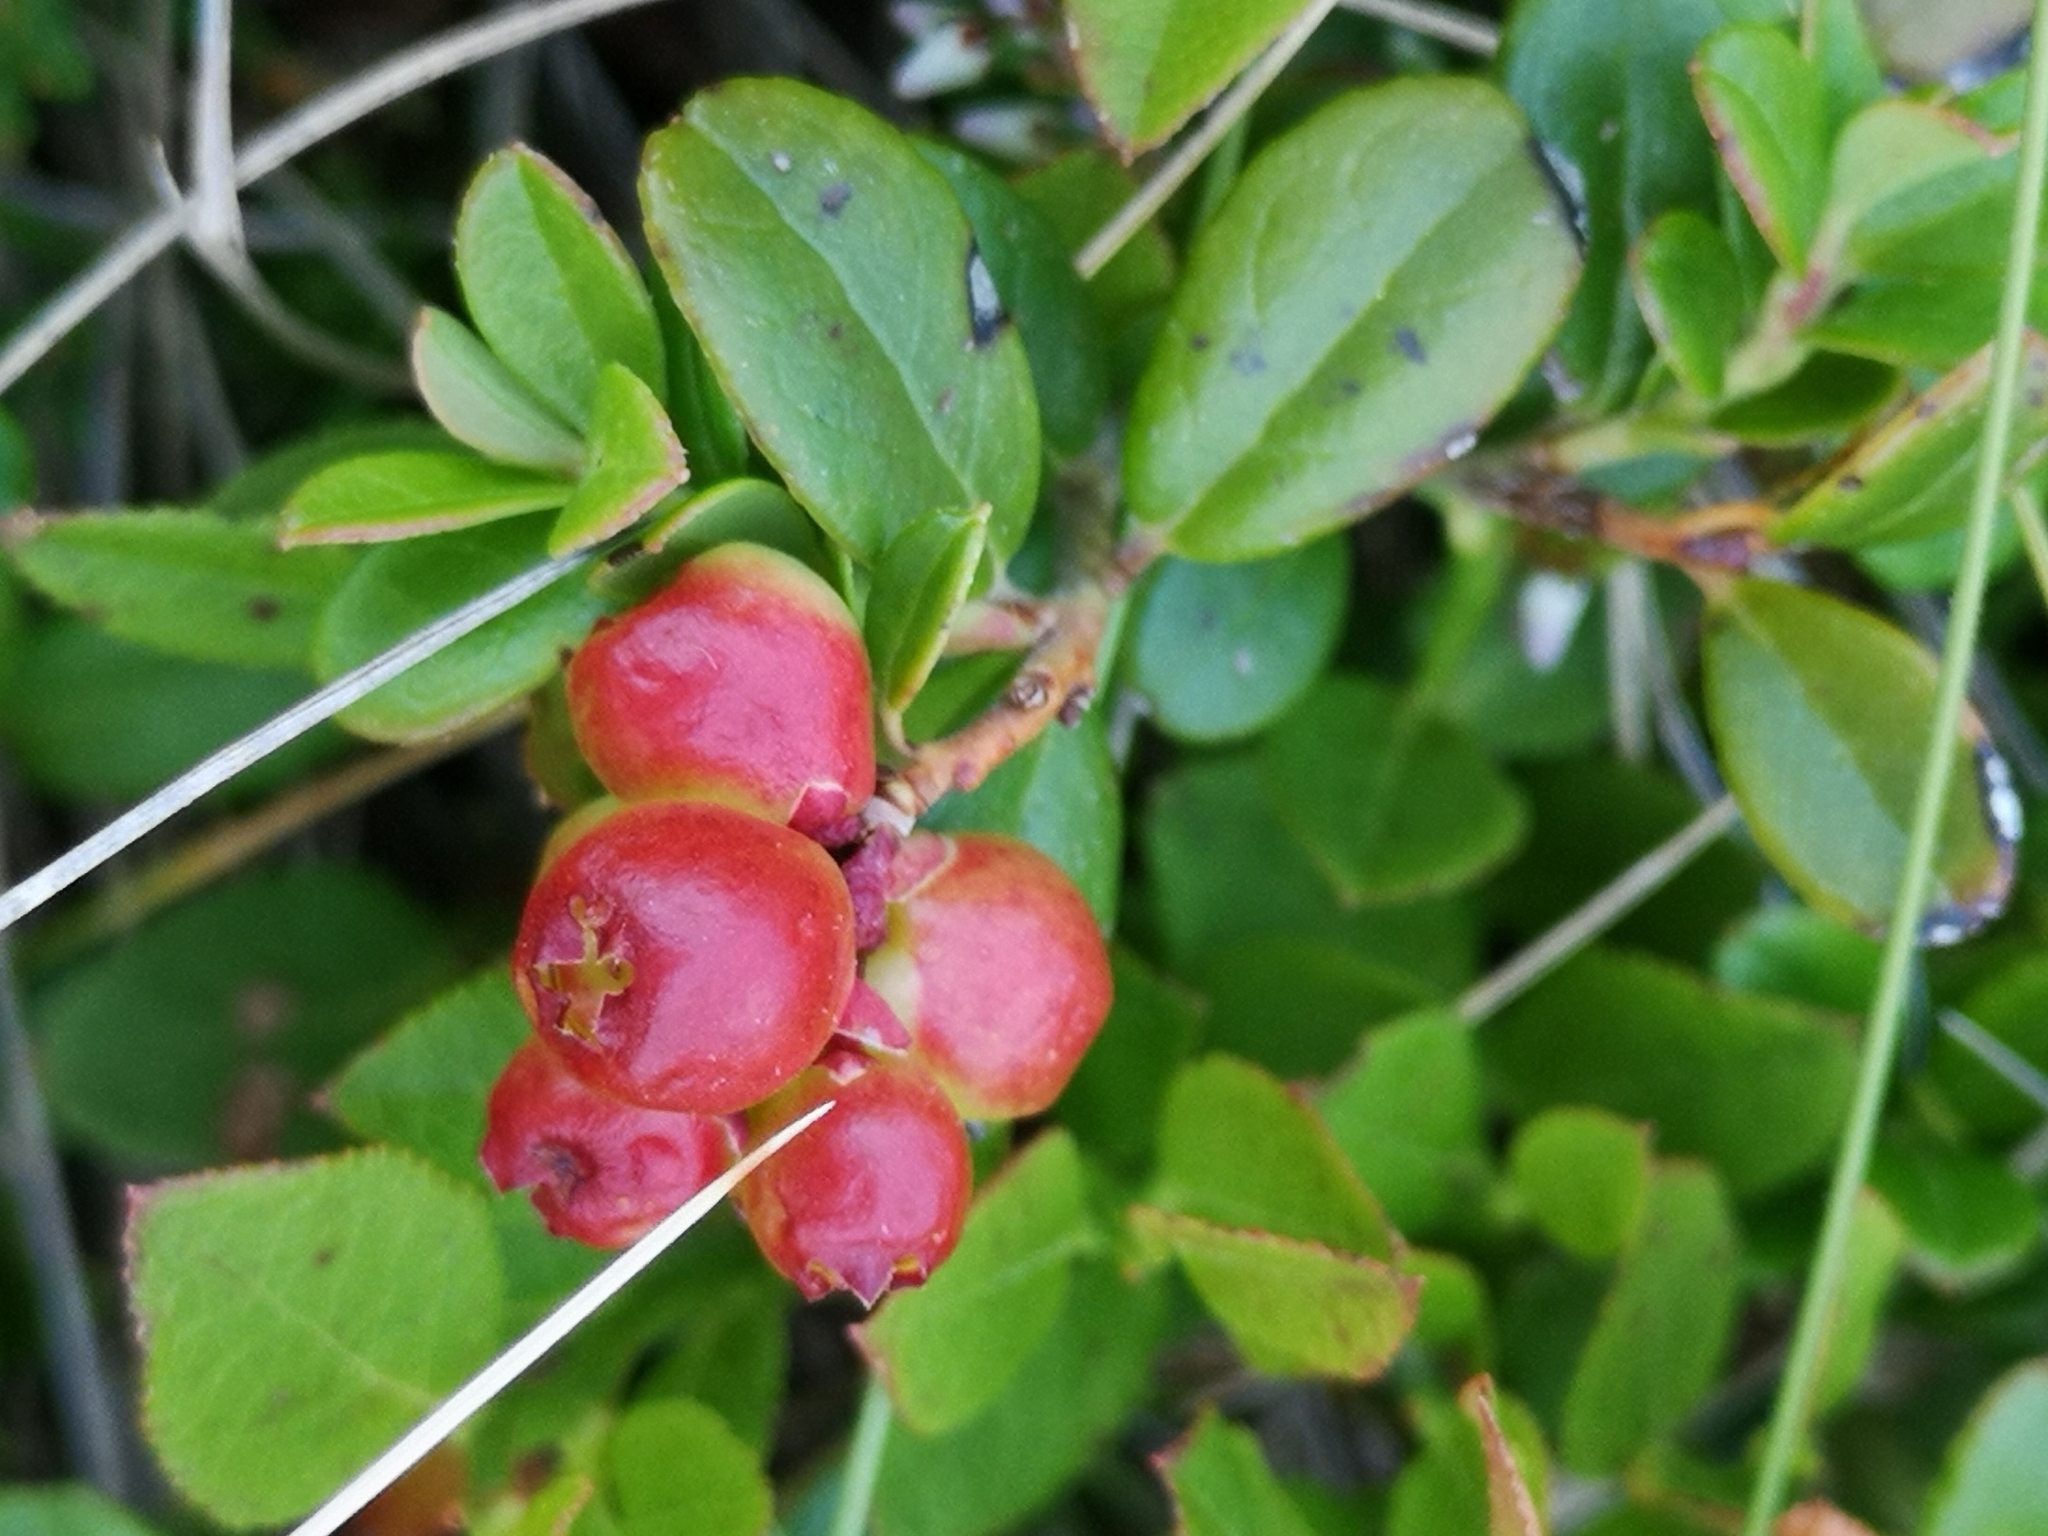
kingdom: Plantae
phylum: Tracheophyta
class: Magnoliopsida
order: Ericales
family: Ericaceae
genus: Vaccinium
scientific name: Vaccinium vitis-idaea
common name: Cowberry
